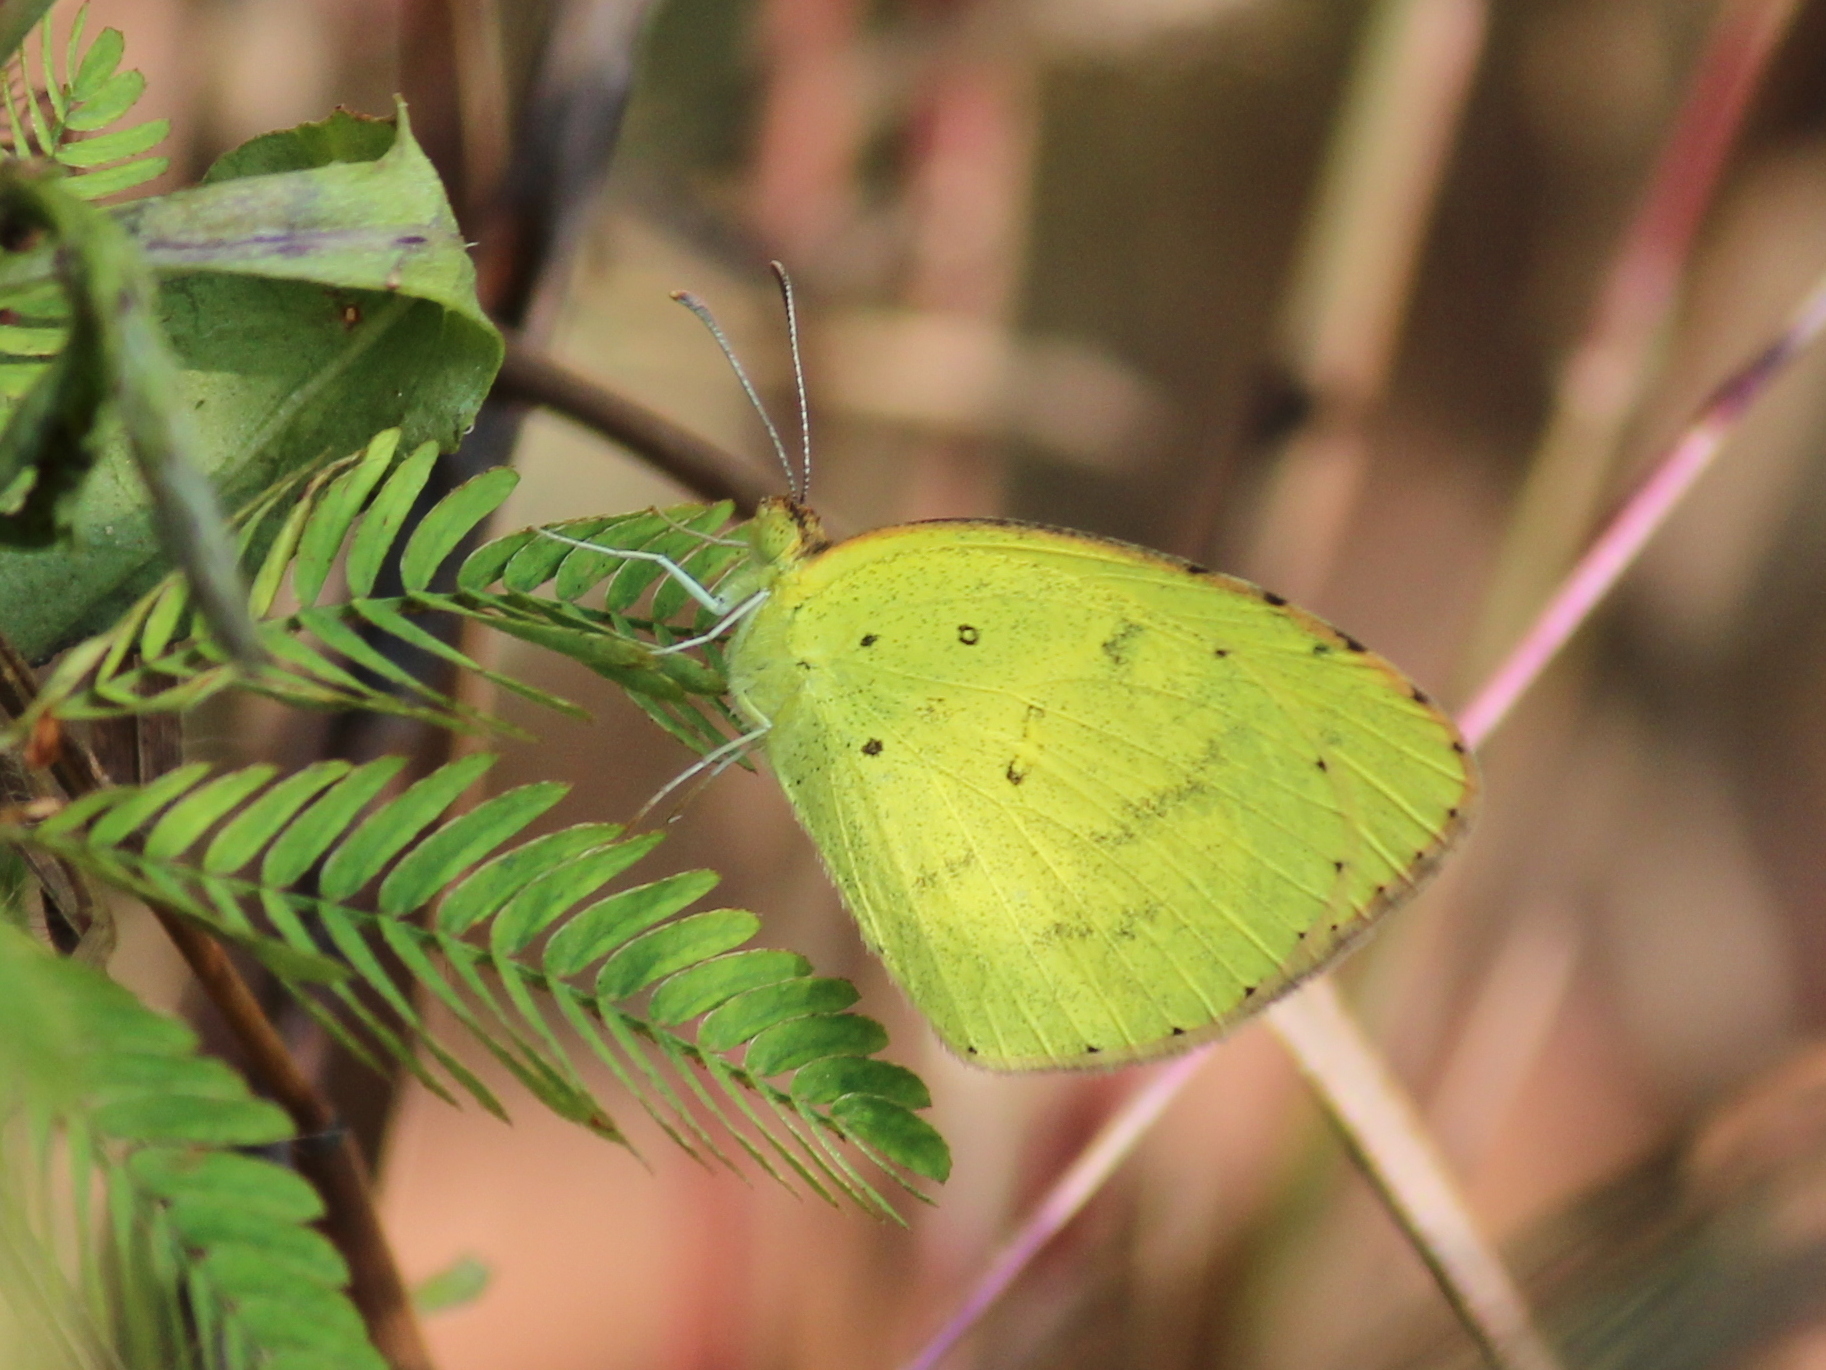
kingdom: Animalia
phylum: Arthropoda
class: Insecta
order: Lepidoptera
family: Pieridae
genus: Eurema
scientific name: Eurema brigitta
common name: Small grass yellow
